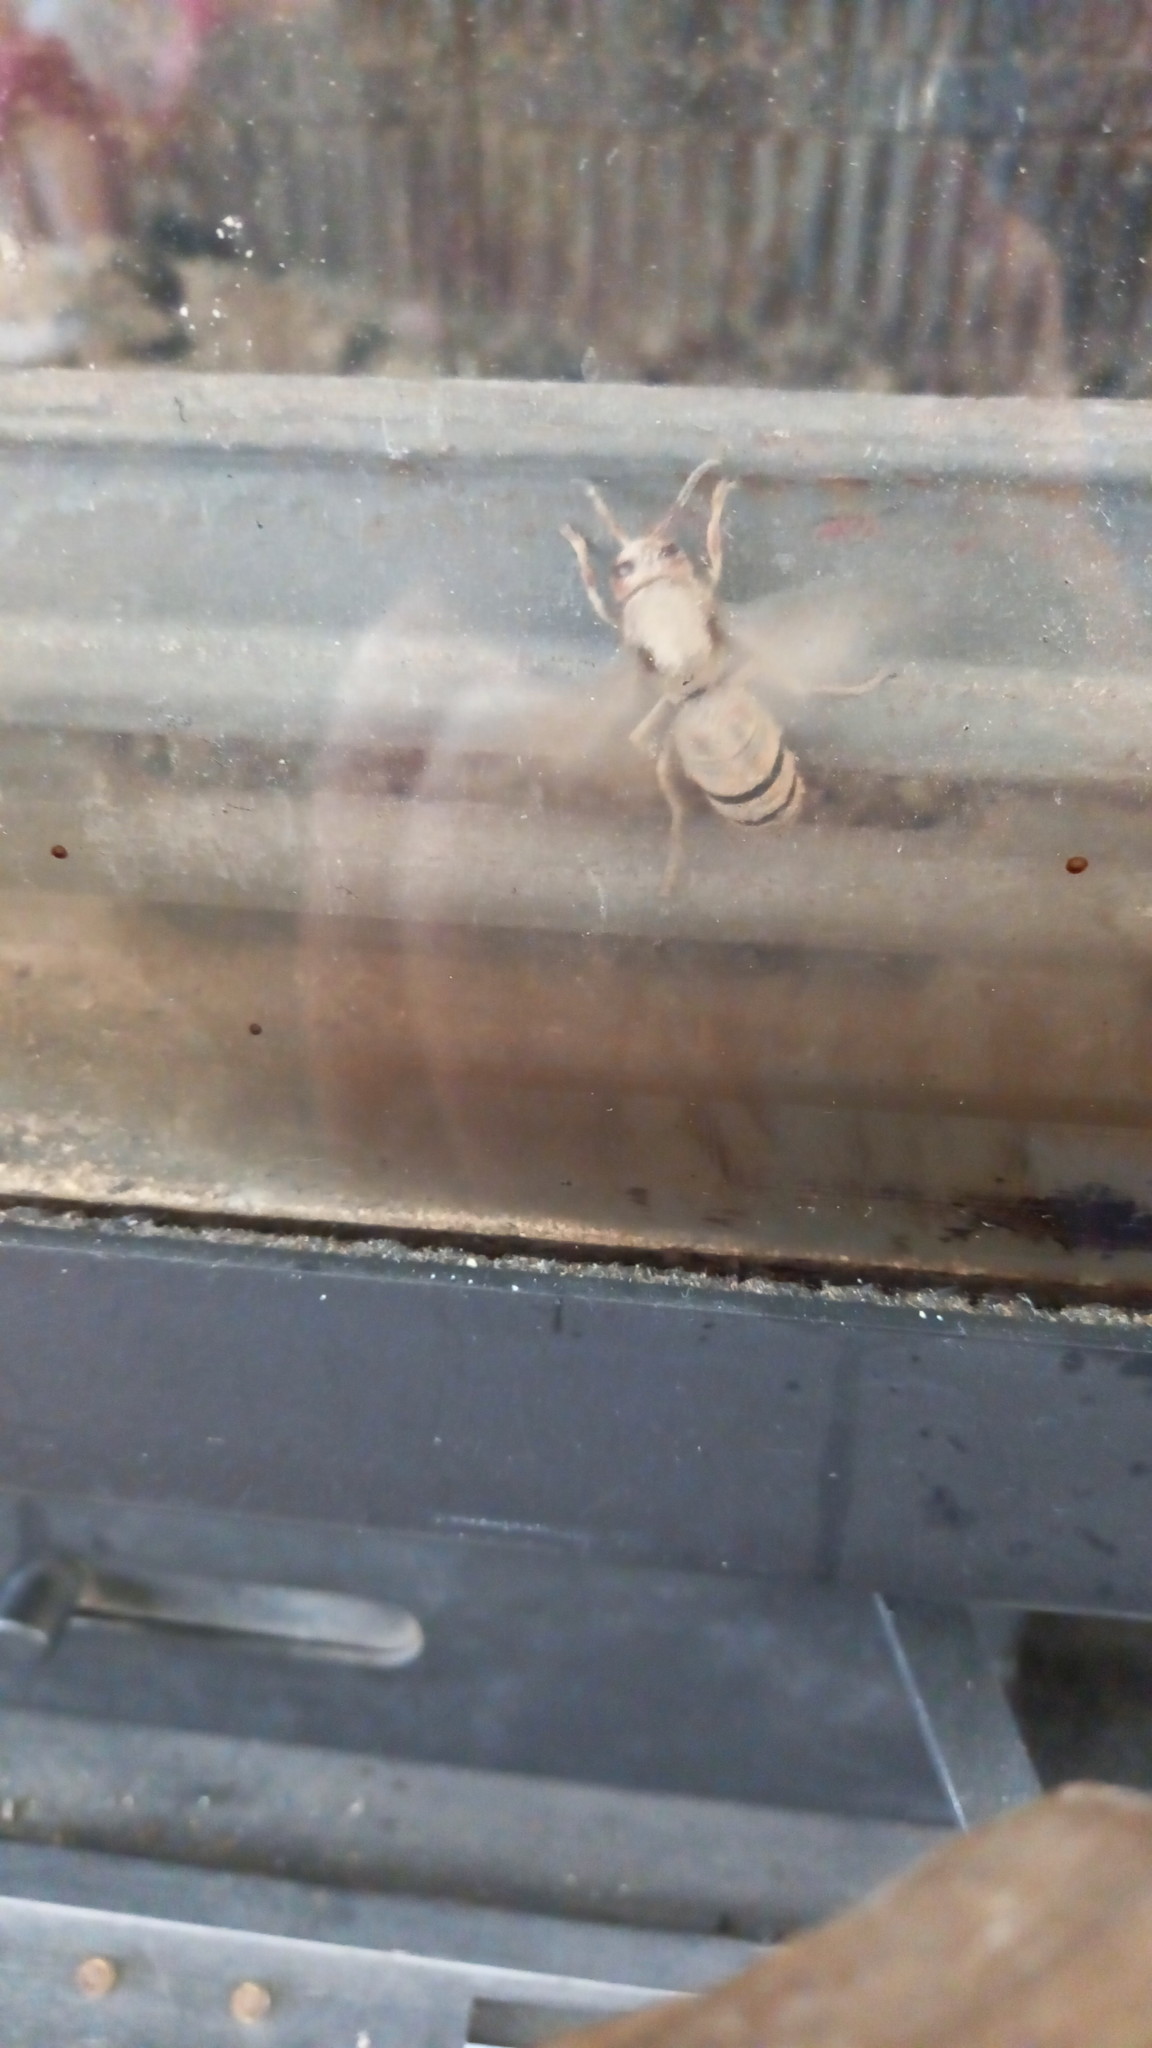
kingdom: Animalia
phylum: Arthropoda
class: Insecta
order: Hymenoptera
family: Vespidae
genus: Vespa
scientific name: Vespa crabro
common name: Hornet
